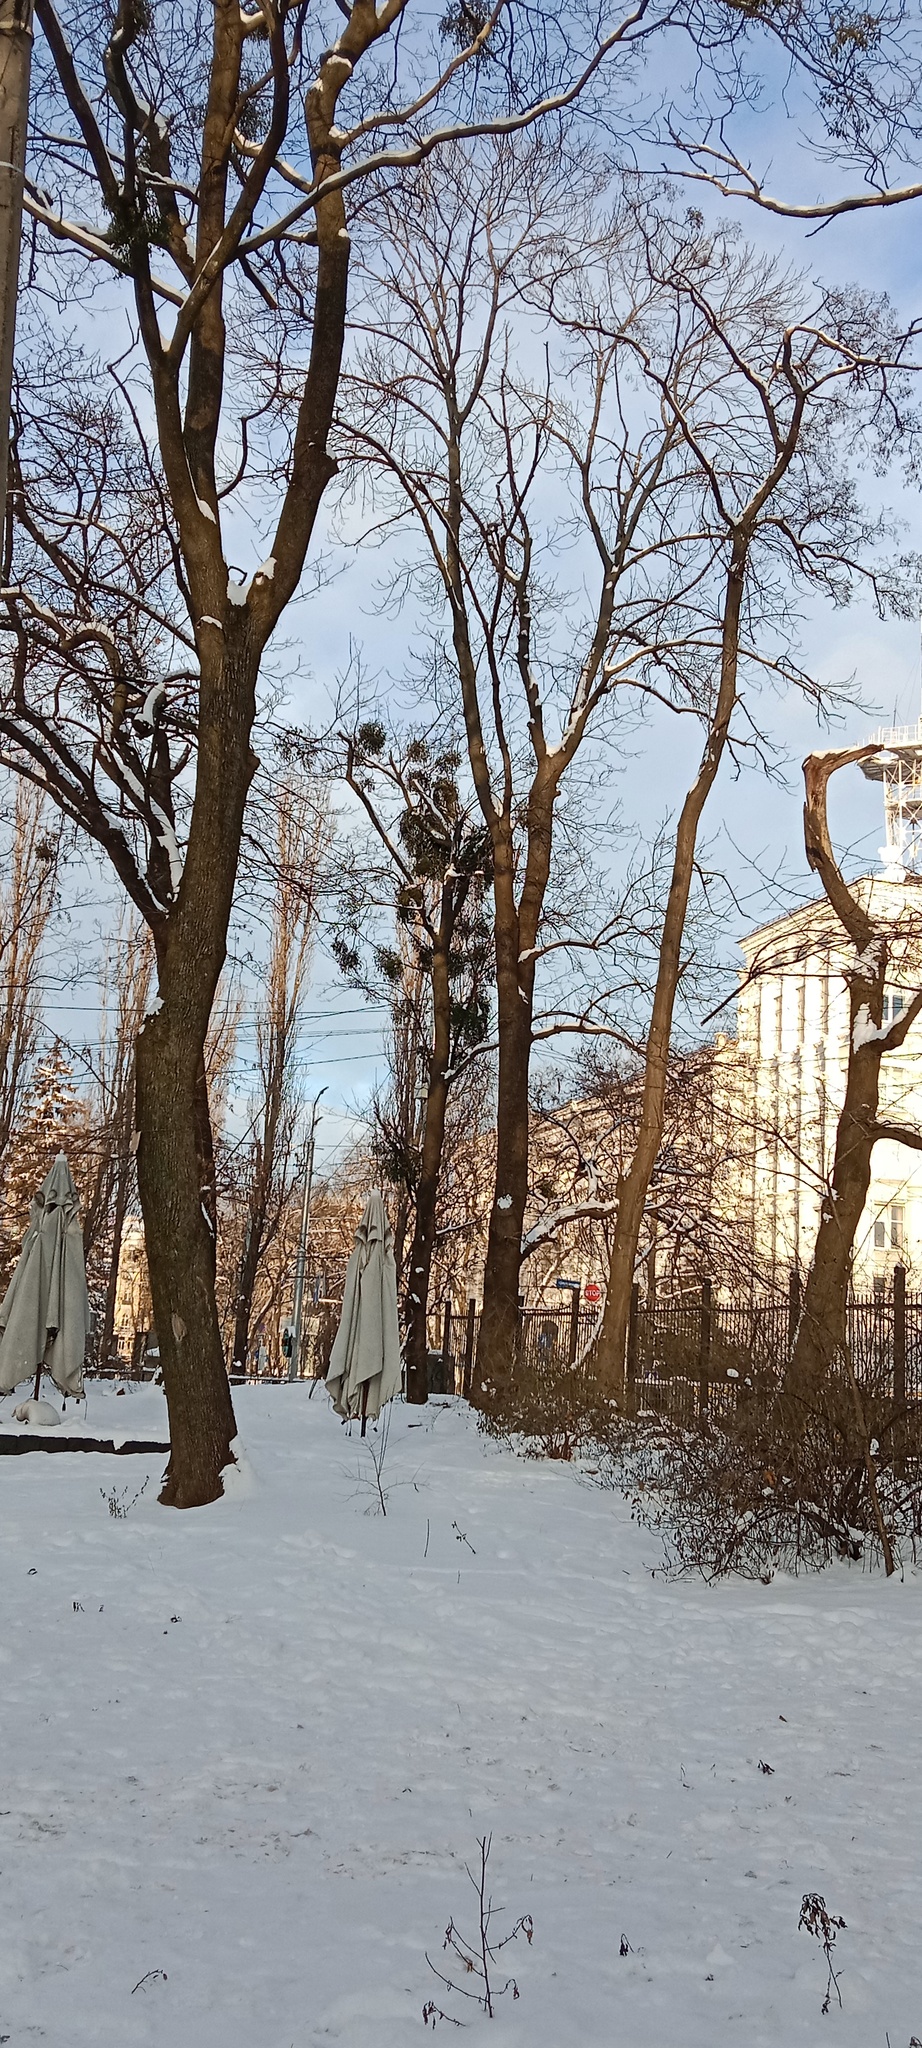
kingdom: Plantae
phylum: Tracheophyta
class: Magnoliopsida
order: Santalales
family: Viscaceae
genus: Viscum
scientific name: Viscum album
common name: Mistletoe
